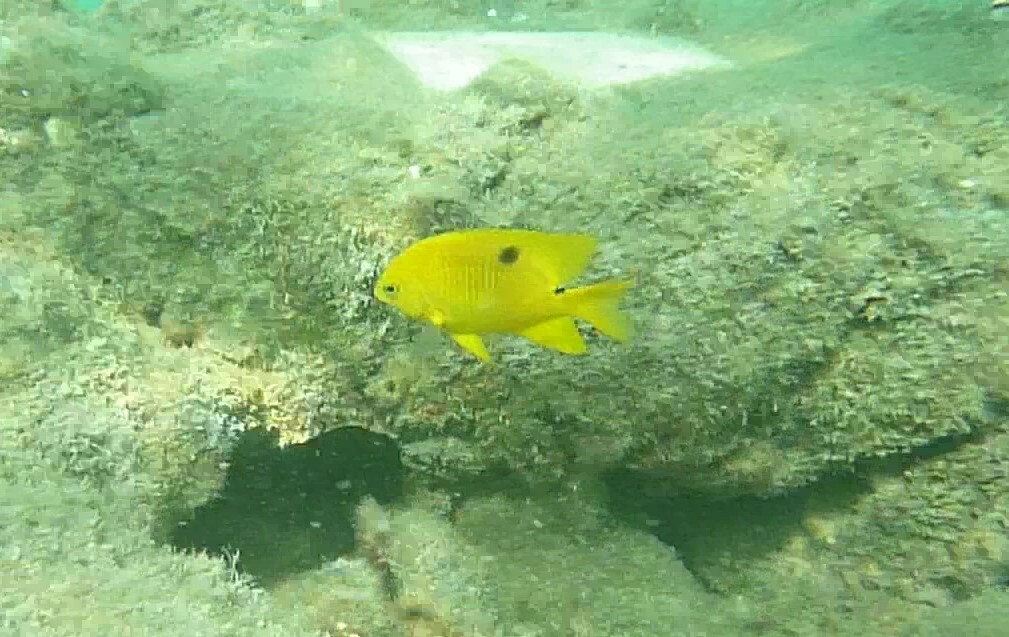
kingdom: Animalia
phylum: Chordata
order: Perciformes
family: Pomacentridae
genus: Stegastes
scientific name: Stegastes planifrons
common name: Threespot damselfish
